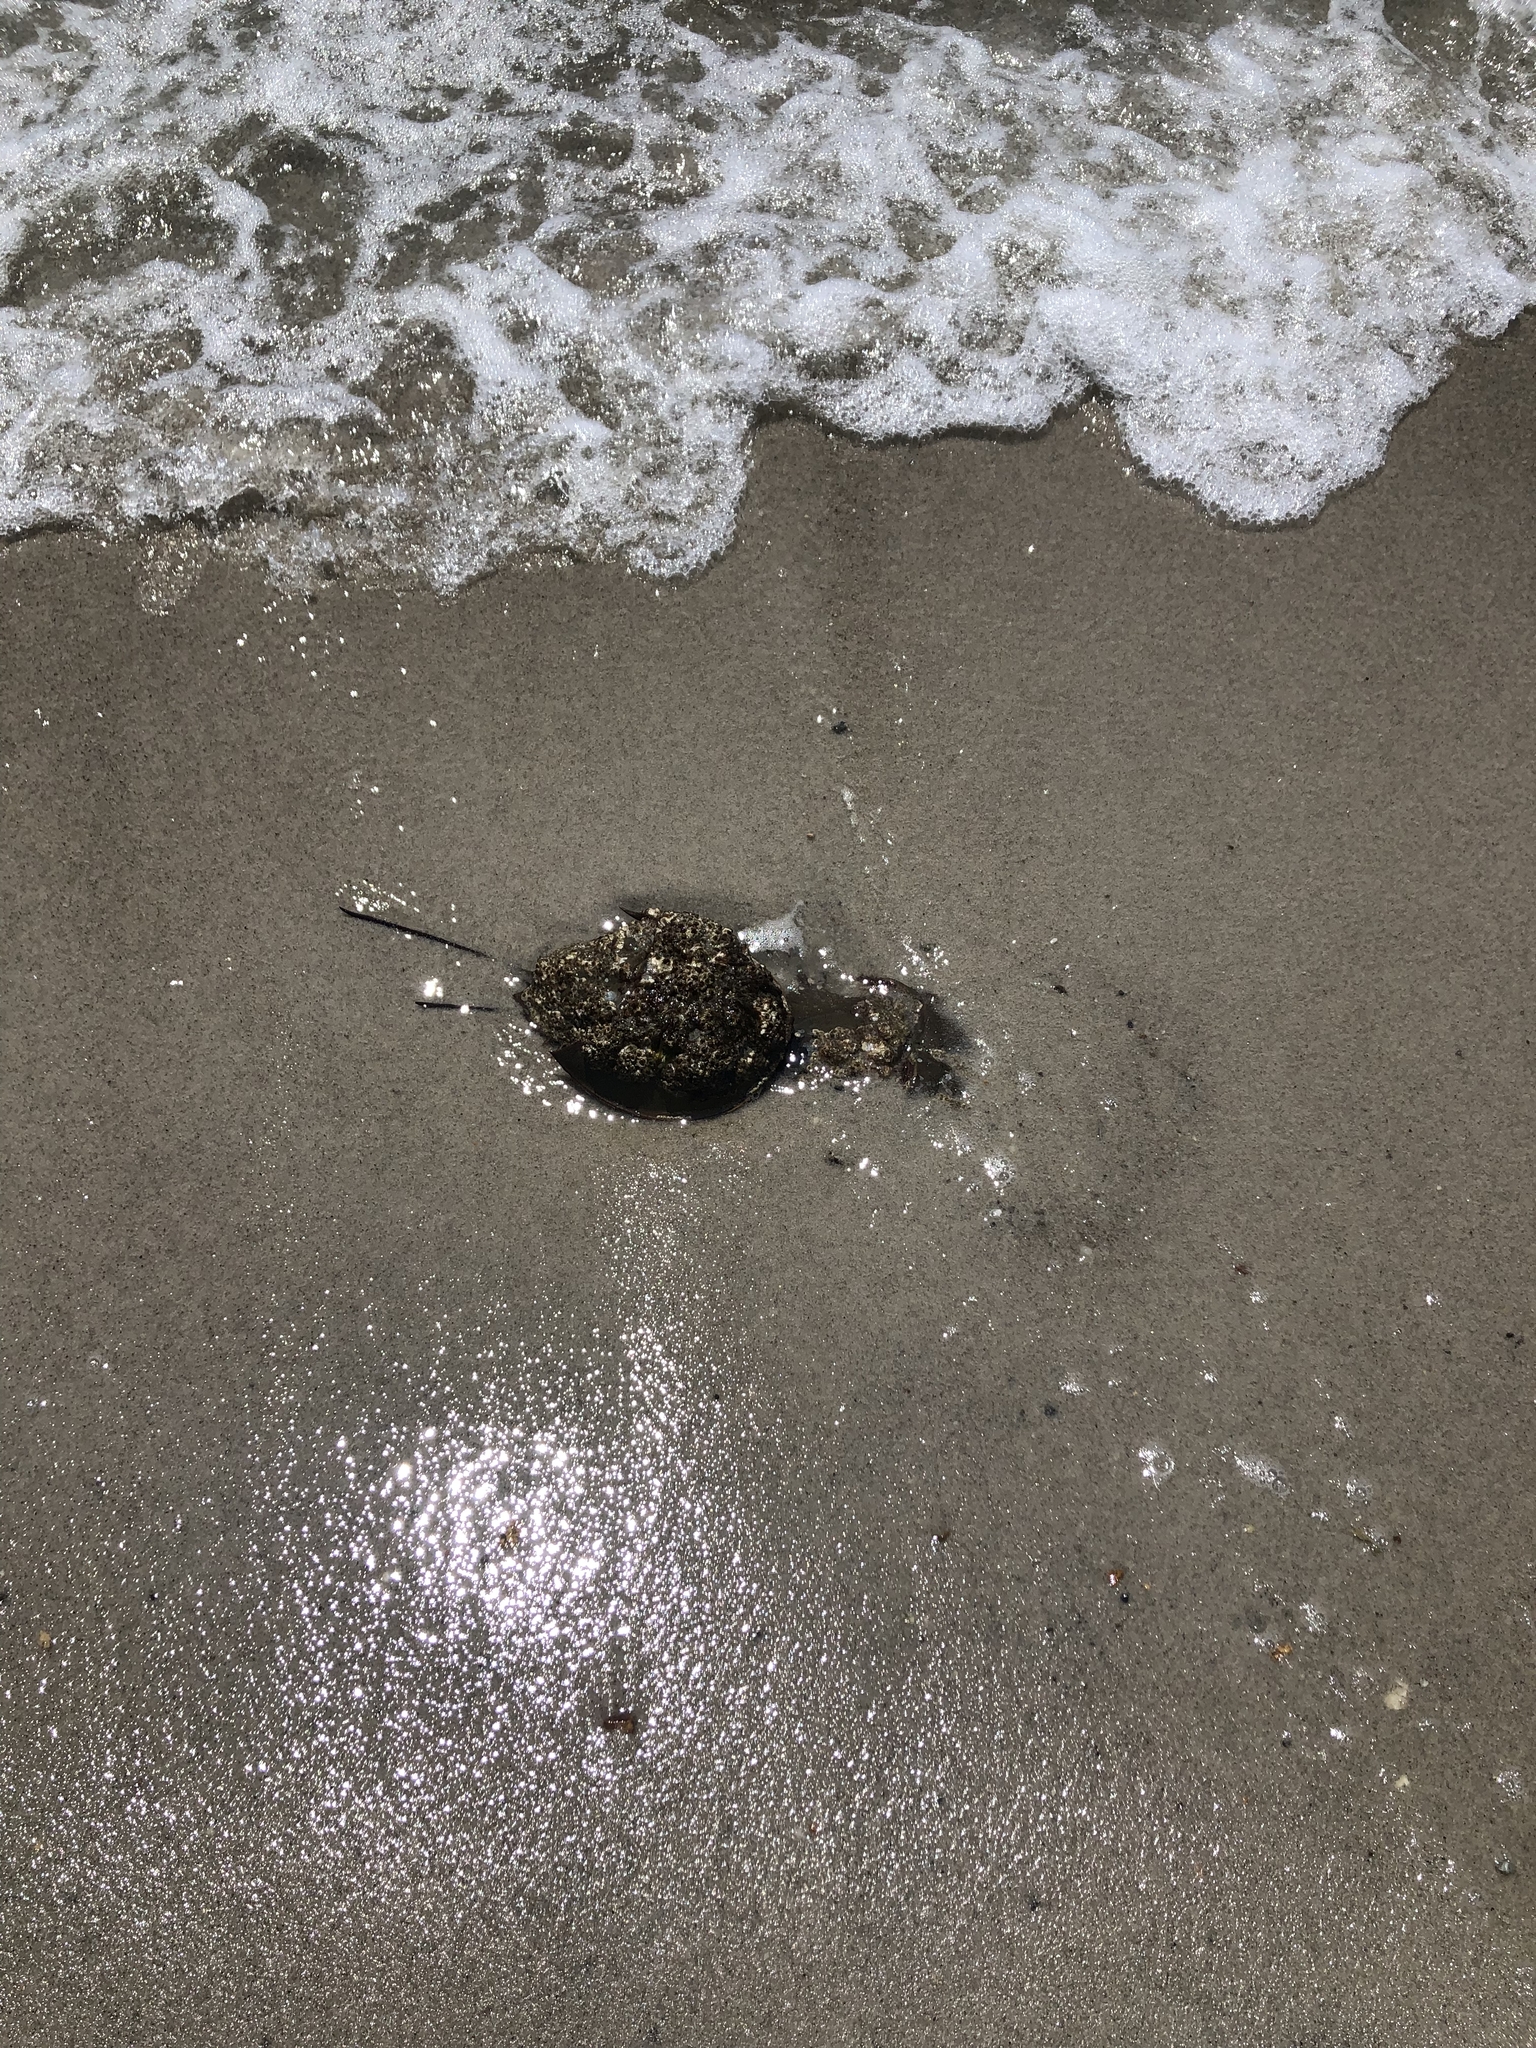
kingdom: Animalia
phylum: Arthropoda
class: Merostomata
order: Xiphosurida
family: Limulidae
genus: Limulus
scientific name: Limulus polyphemus
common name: Horseshoe crab
